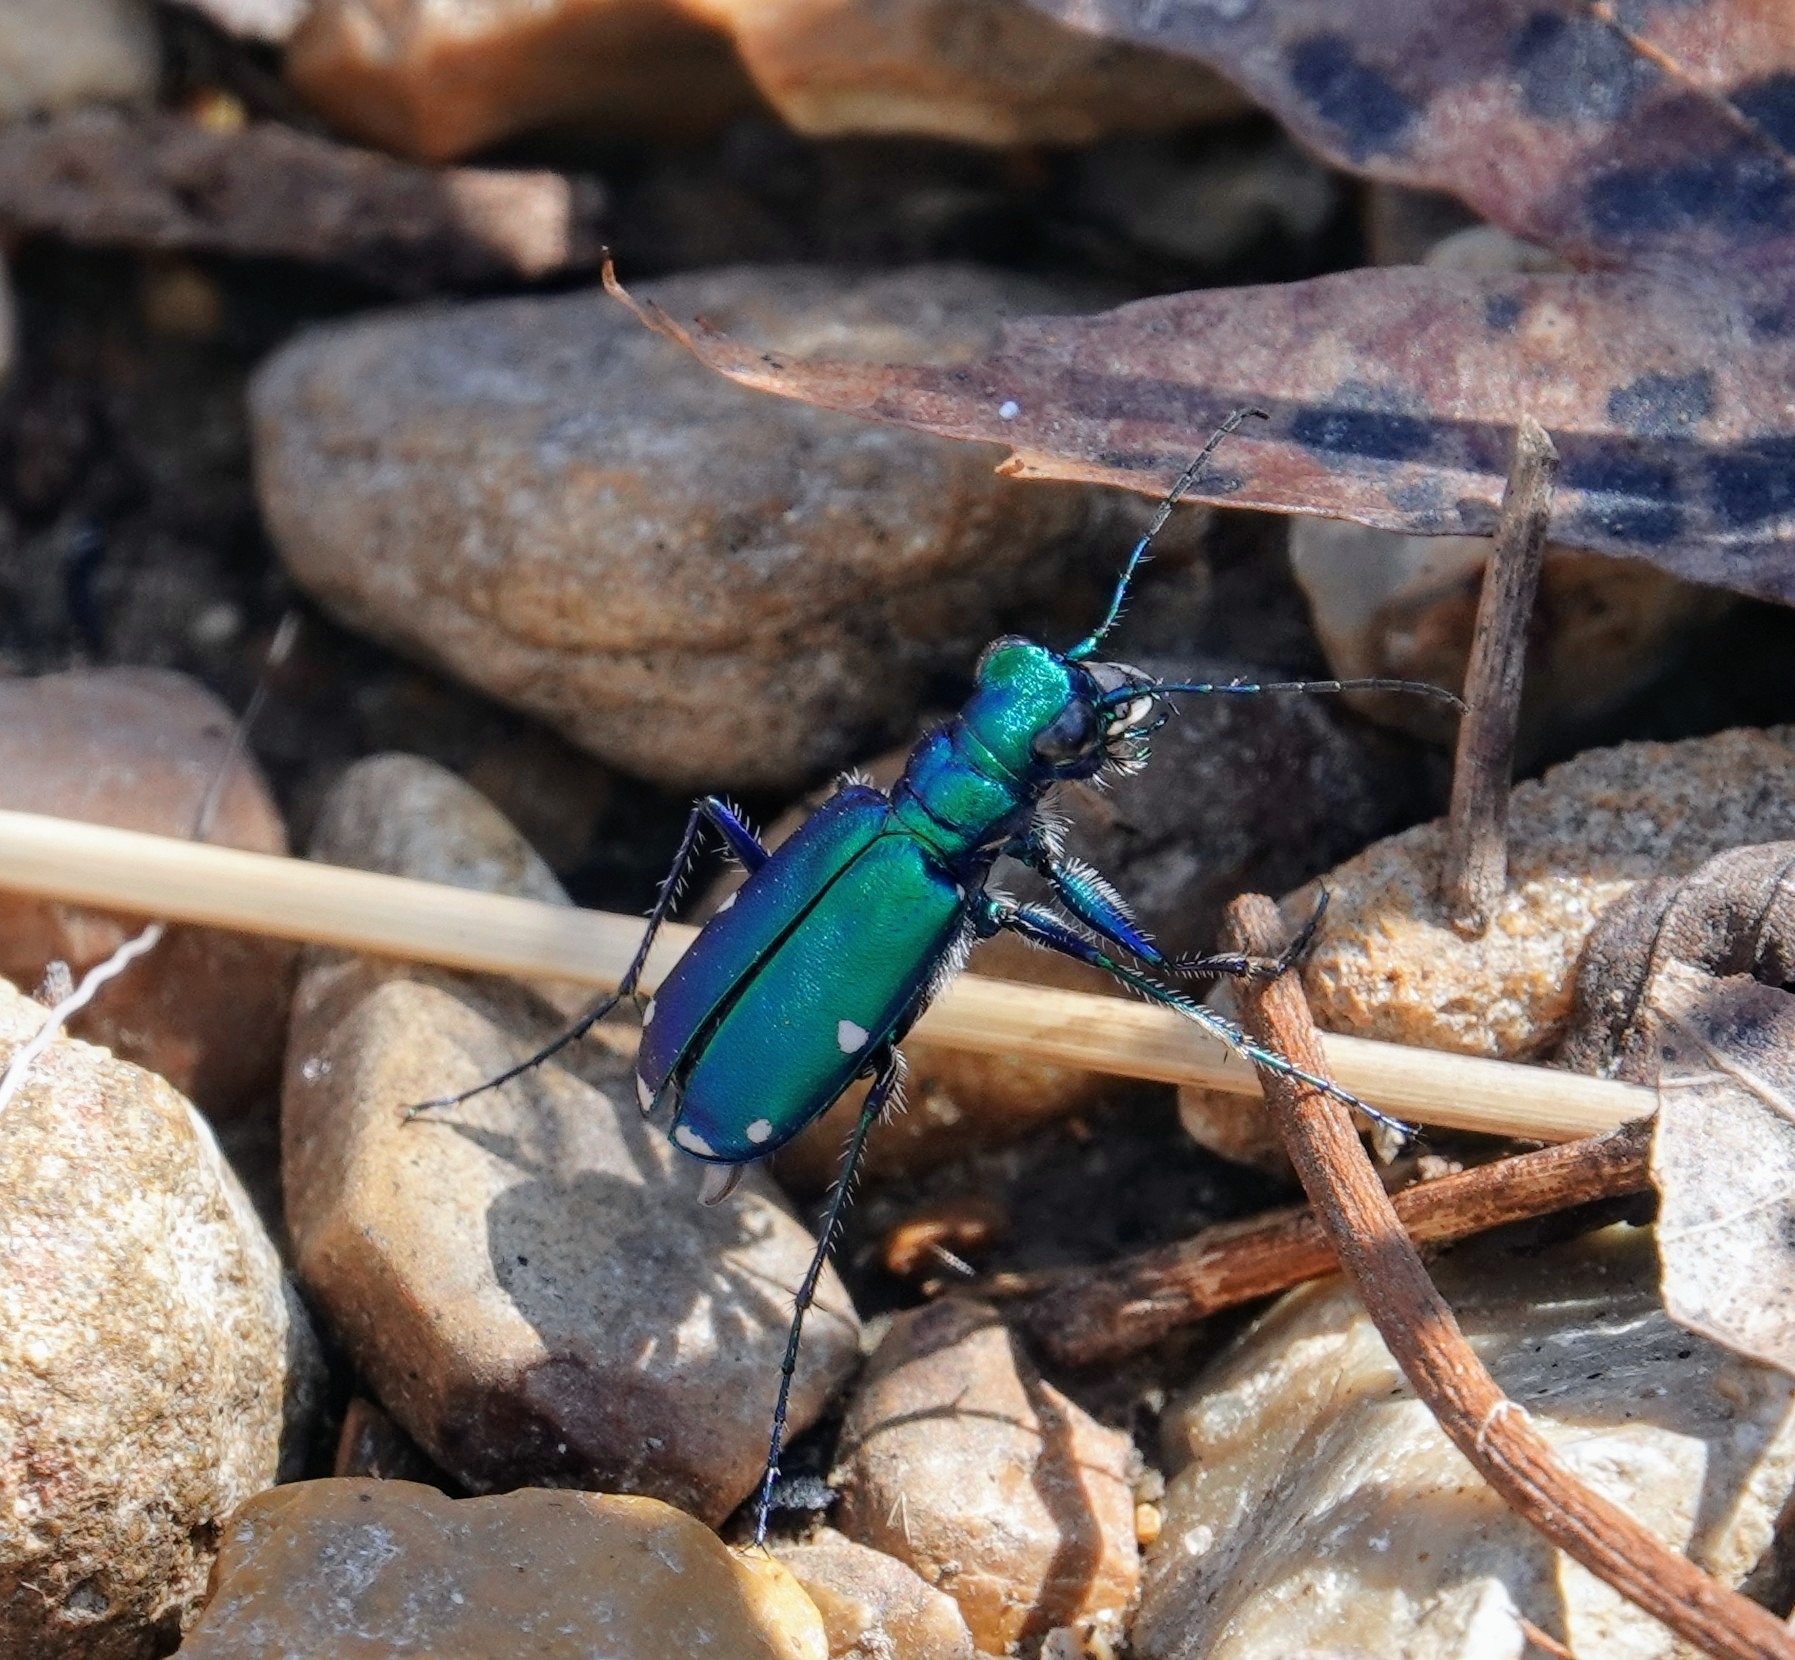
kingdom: Animalia
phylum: Arthropoda
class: Insecta
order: Coleoptera
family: Carabidae
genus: Cicindela
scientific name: Cicindela sexguttata
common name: Six-spotted tiger beetle
